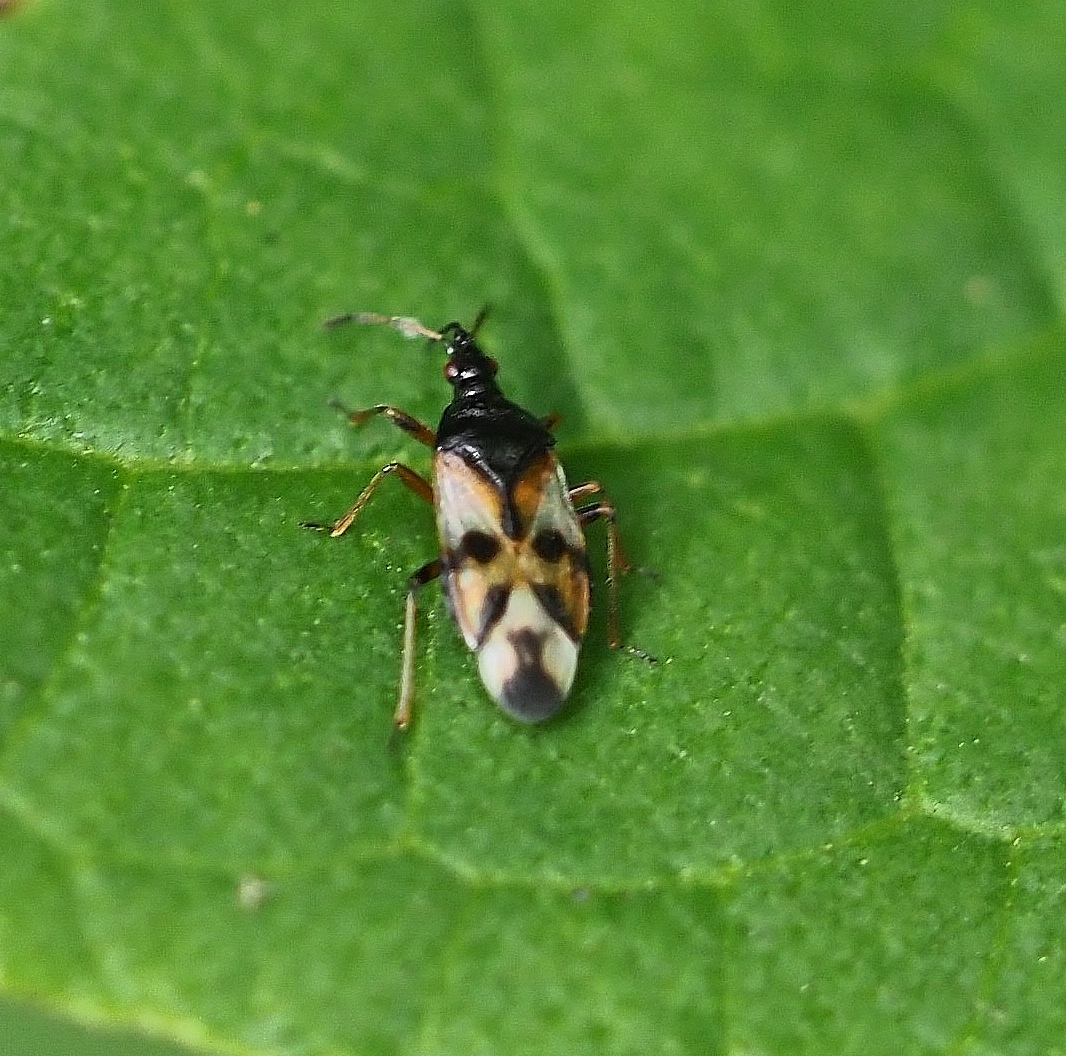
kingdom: Animalia
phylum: Arthropoda
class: Insecta
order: Hemiptera
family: Anthocoridae
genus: Anthocoris
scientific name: Anthocoris nemorum
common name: Minute pirate bug
